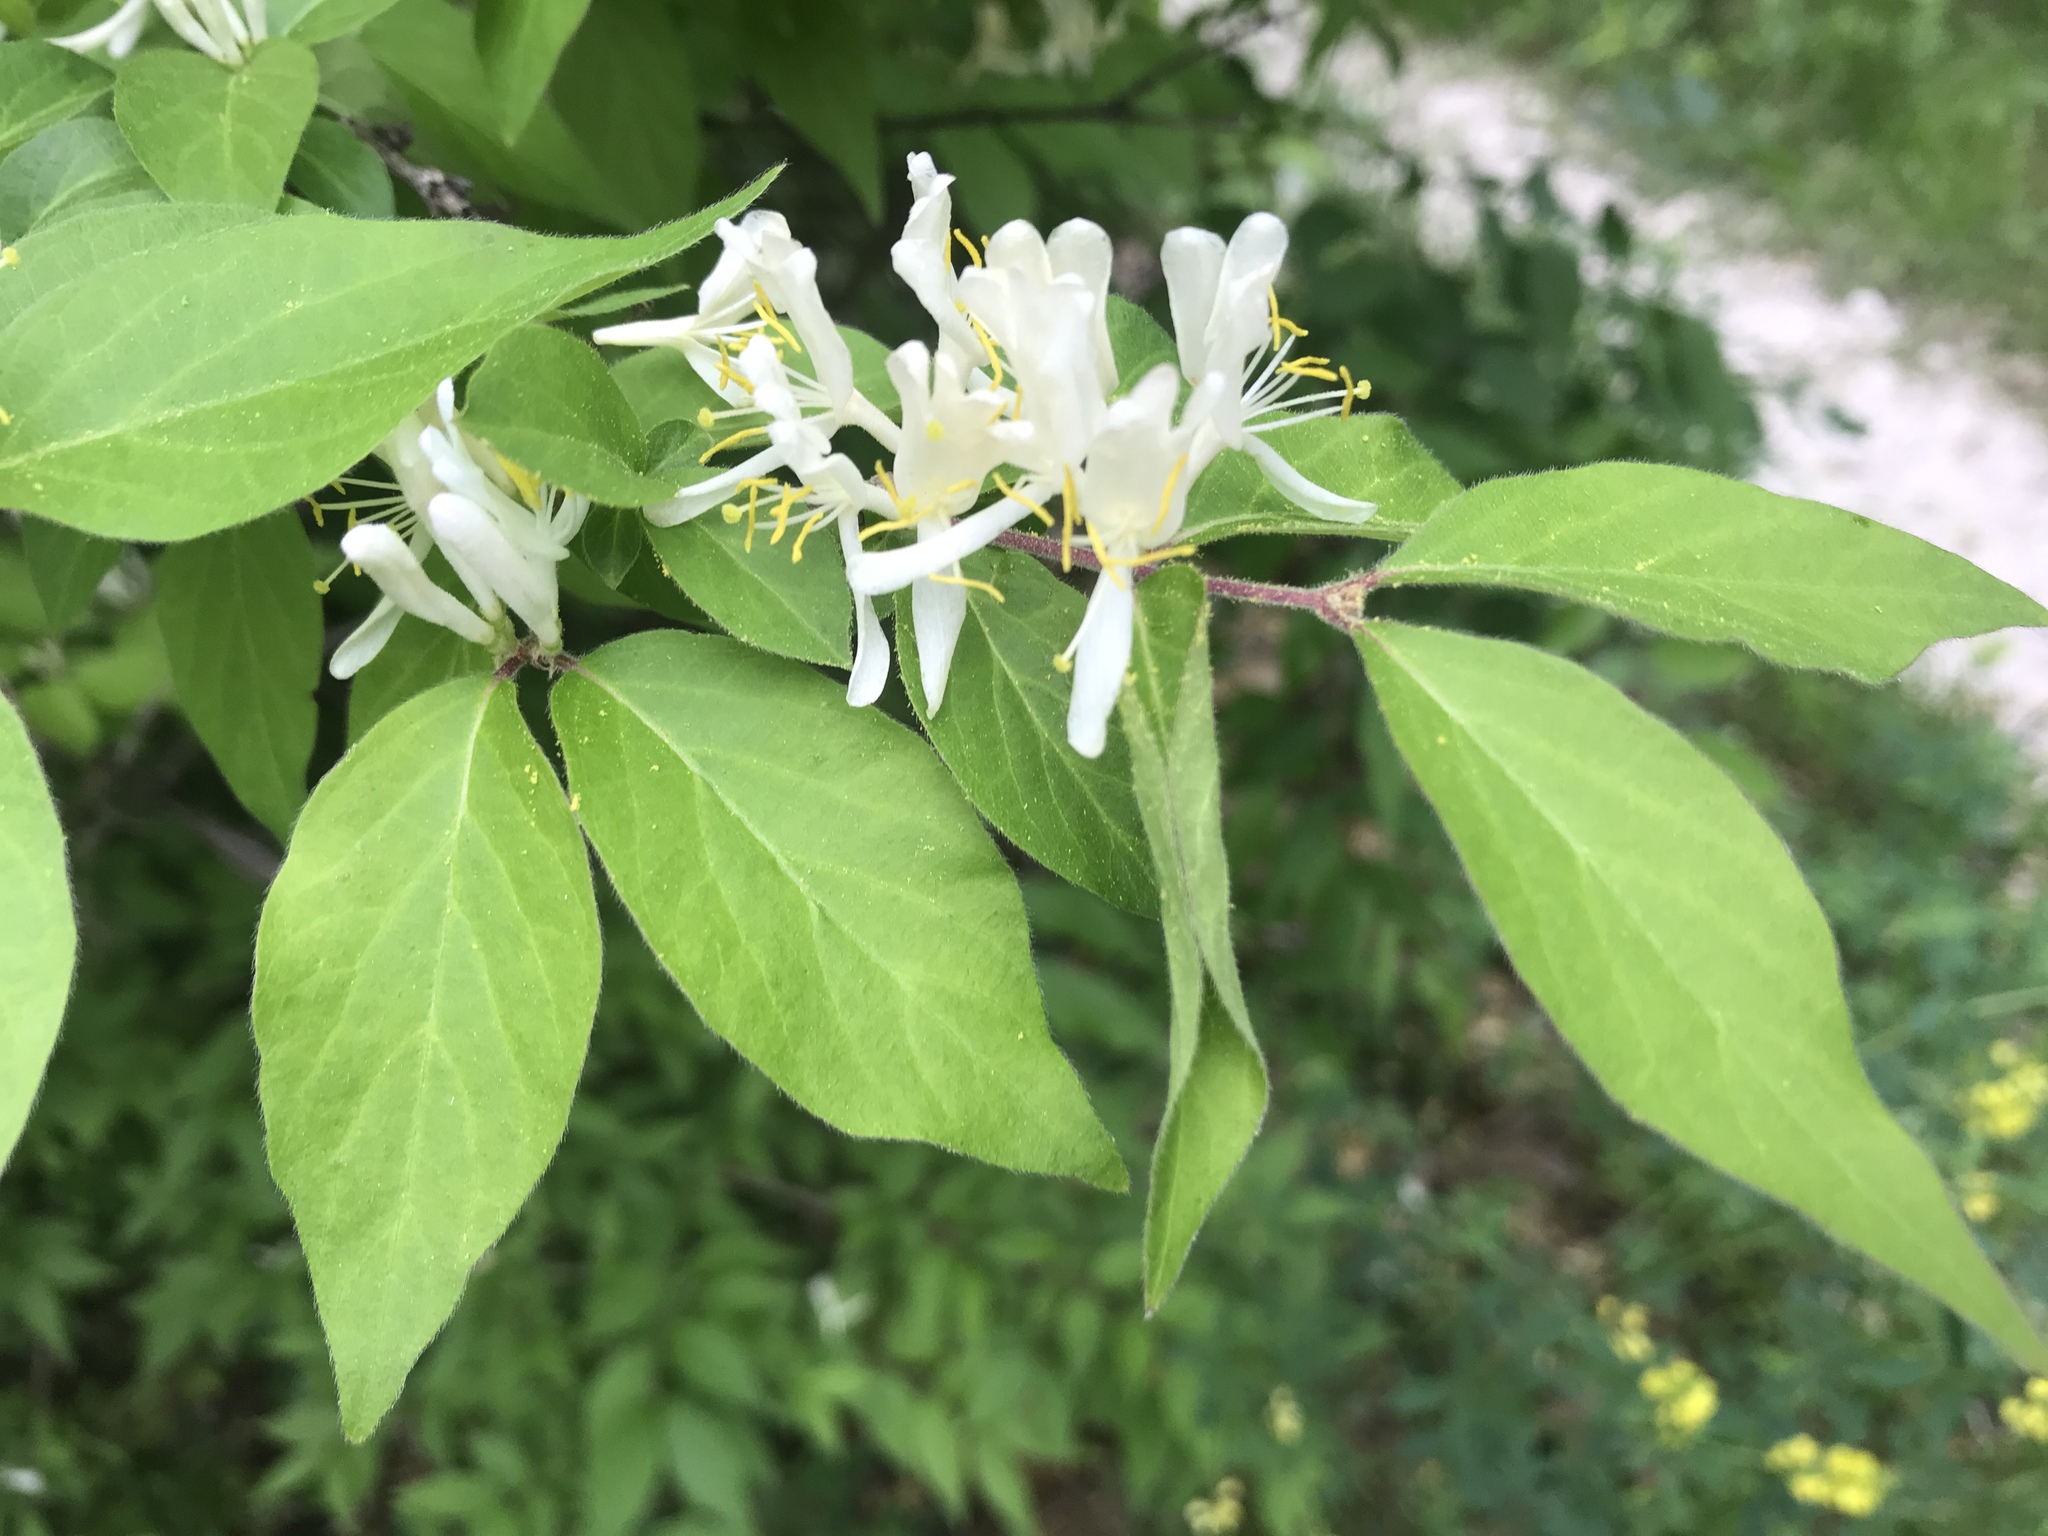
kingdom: Plantae
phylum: Tracheophyta
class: Magnoliopsida
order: Dipsacales
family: Caprifoliaceae
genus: Lonicera
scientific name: Lonicera maackii
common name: Amur honeysuckle
